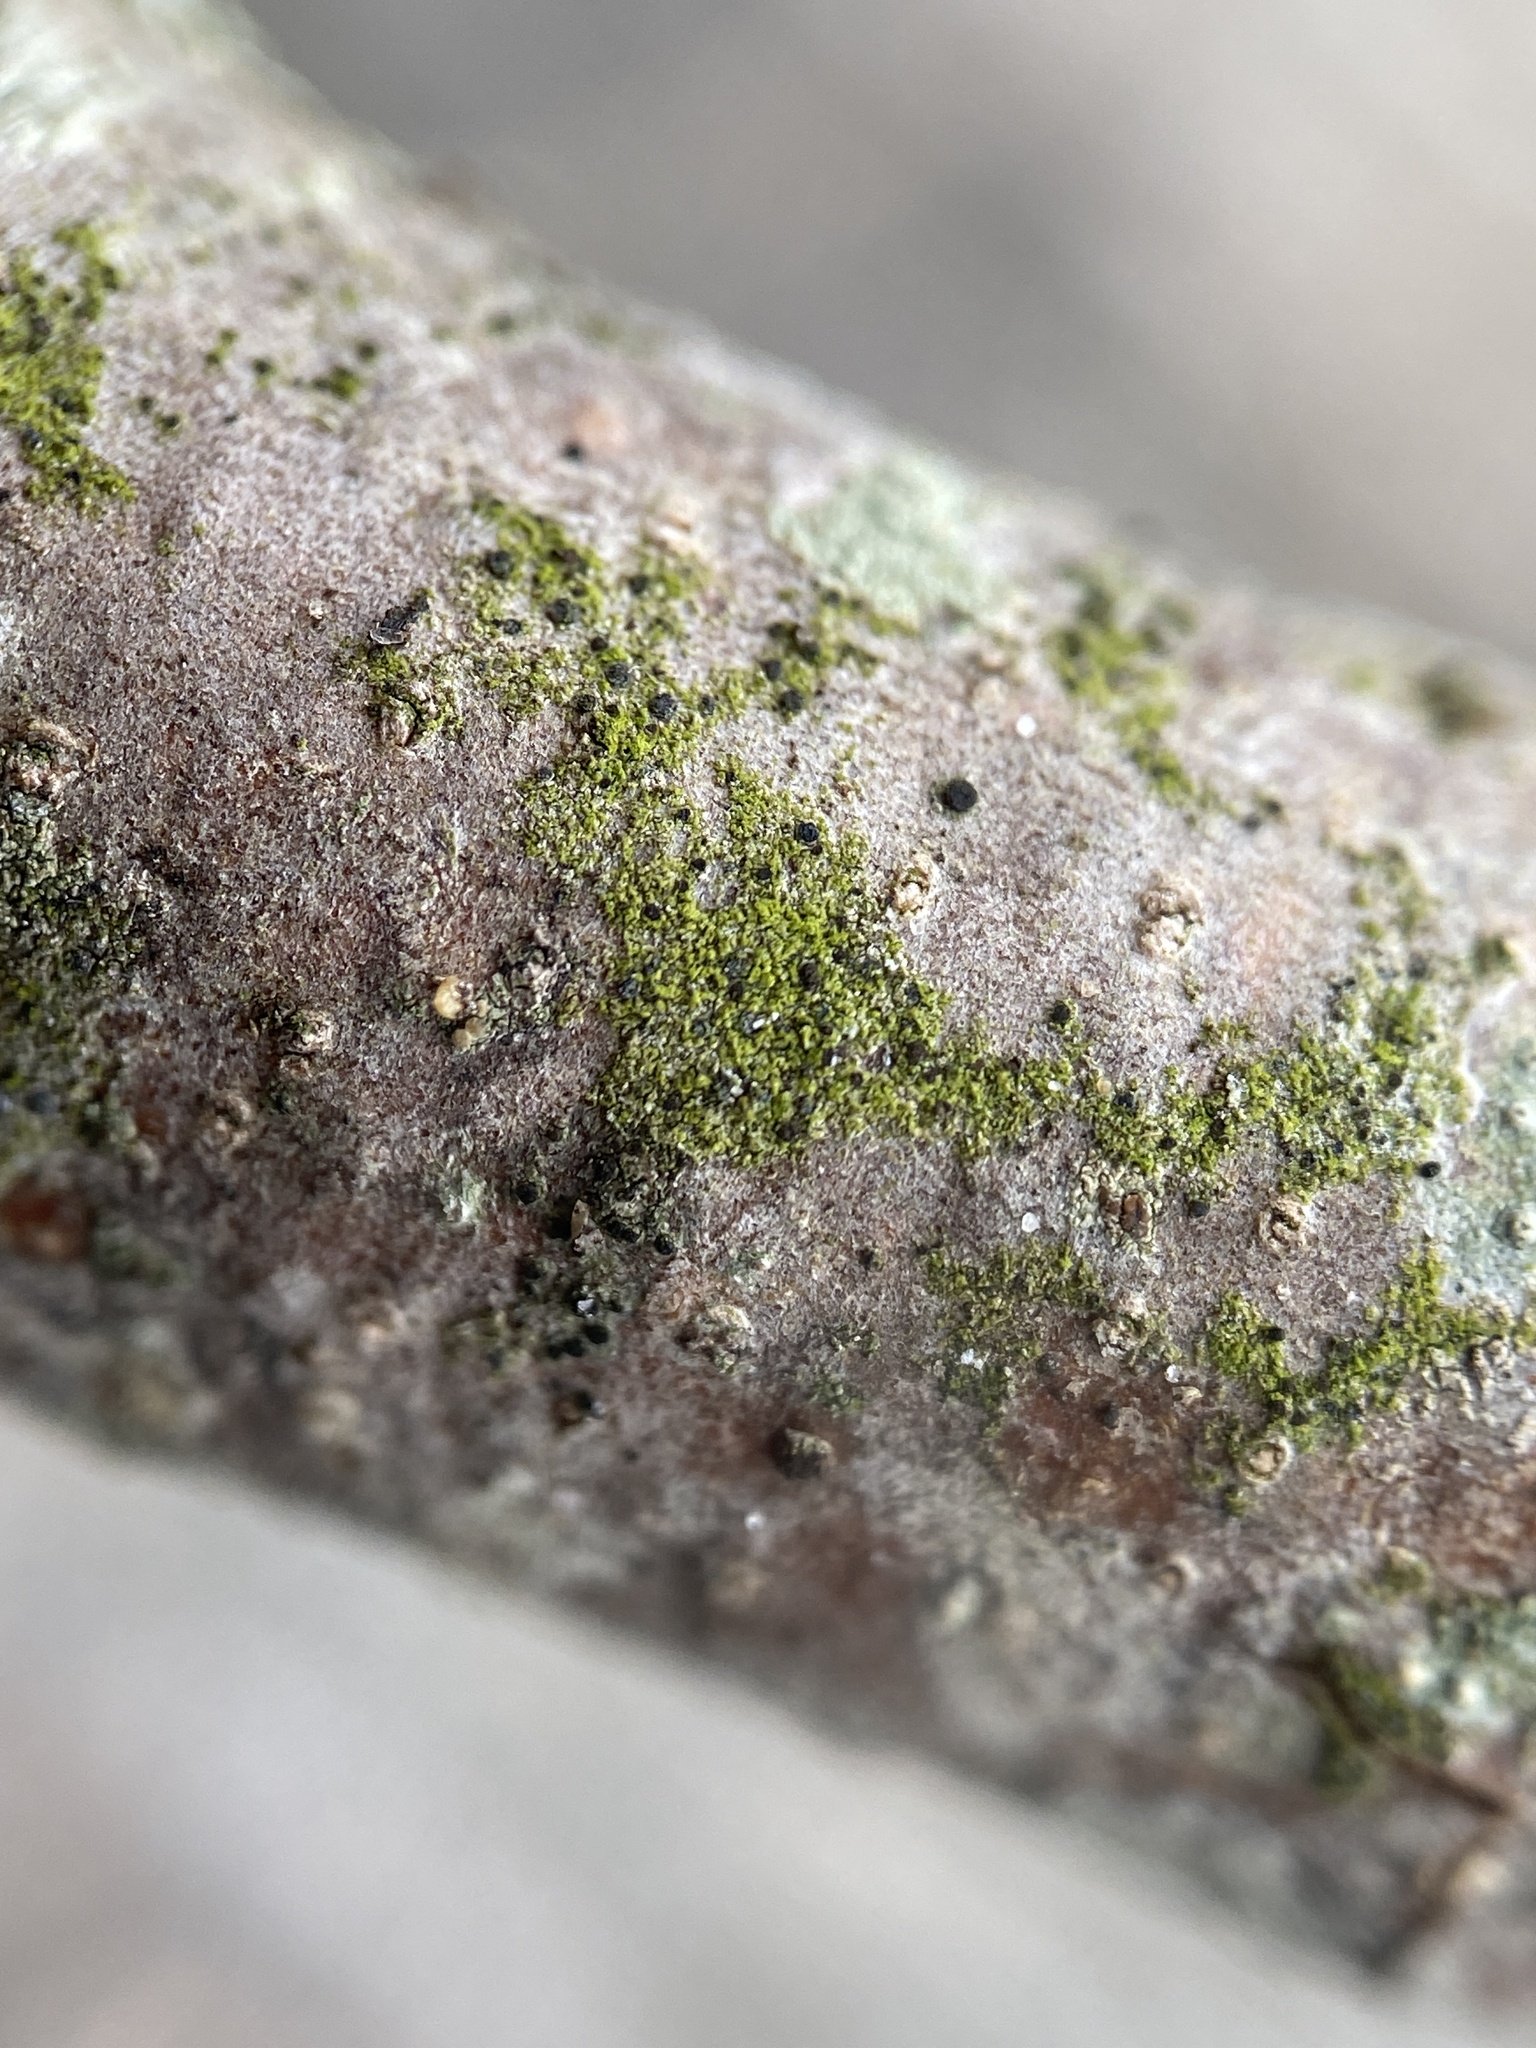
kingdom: Fungi
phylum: Ascomycota
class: Arthoniomycetes
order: Arthoniales
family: Chrysotrichaceae
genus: Chrysothrix
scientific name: Chrysothrix caesia
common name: Frosted comma lichen
